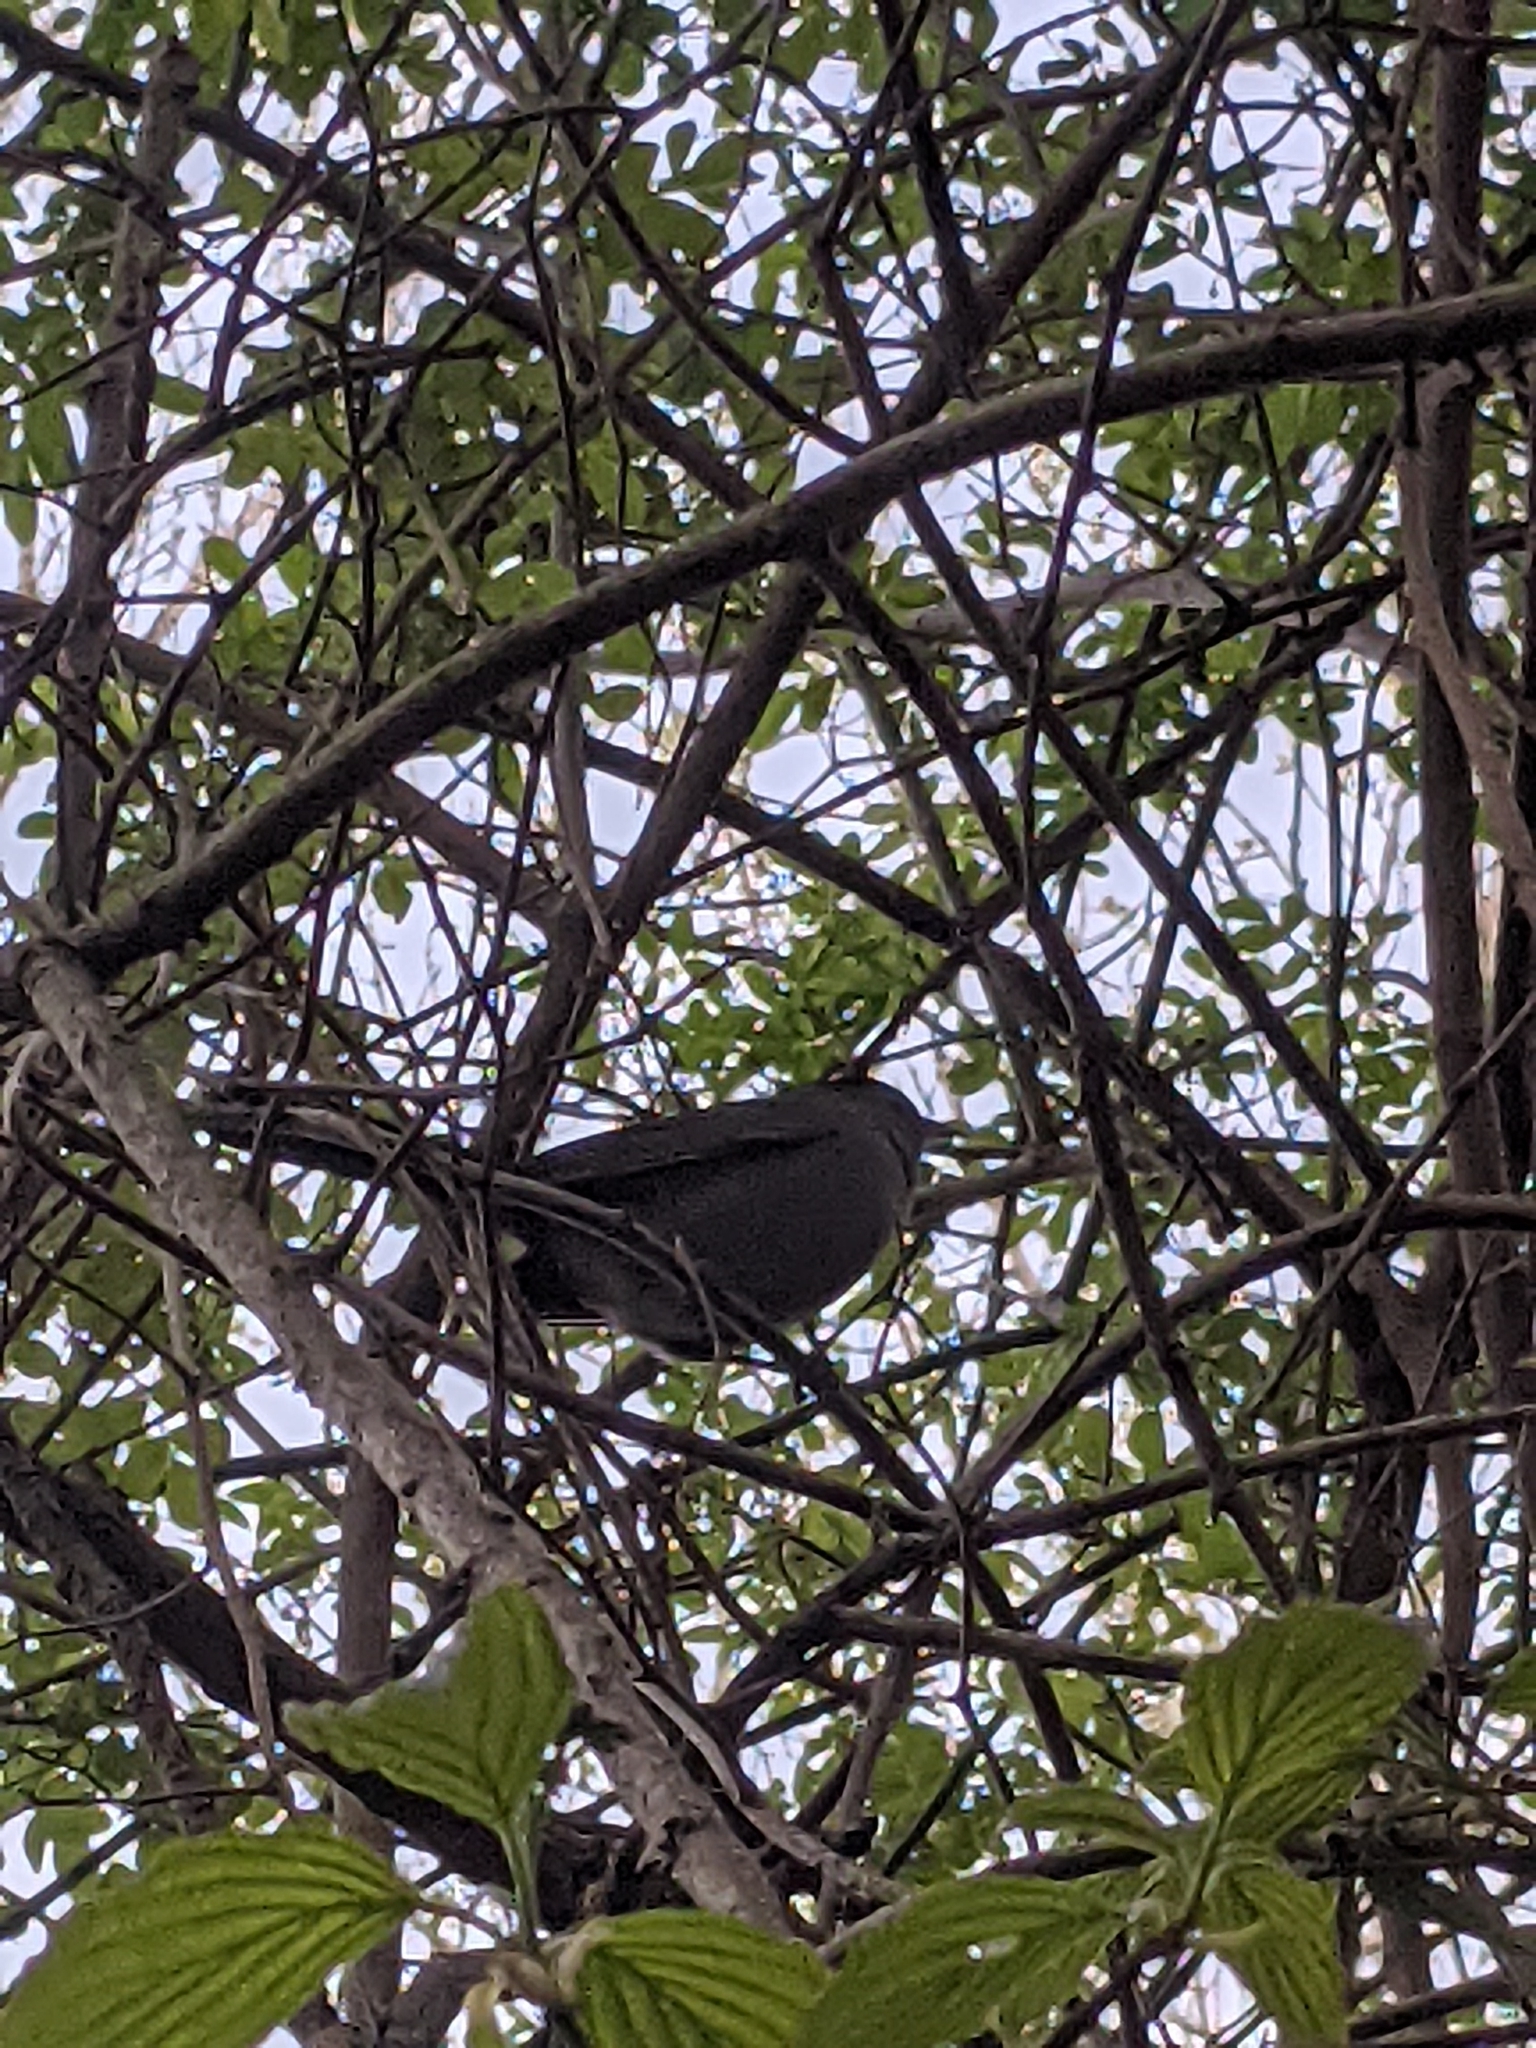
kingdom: Animalia
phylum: Chordata
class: Aves
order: Passeriformes
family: Mimidae
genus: Dumetella
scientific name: Dumetella carolinensis
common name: Gray catbird
